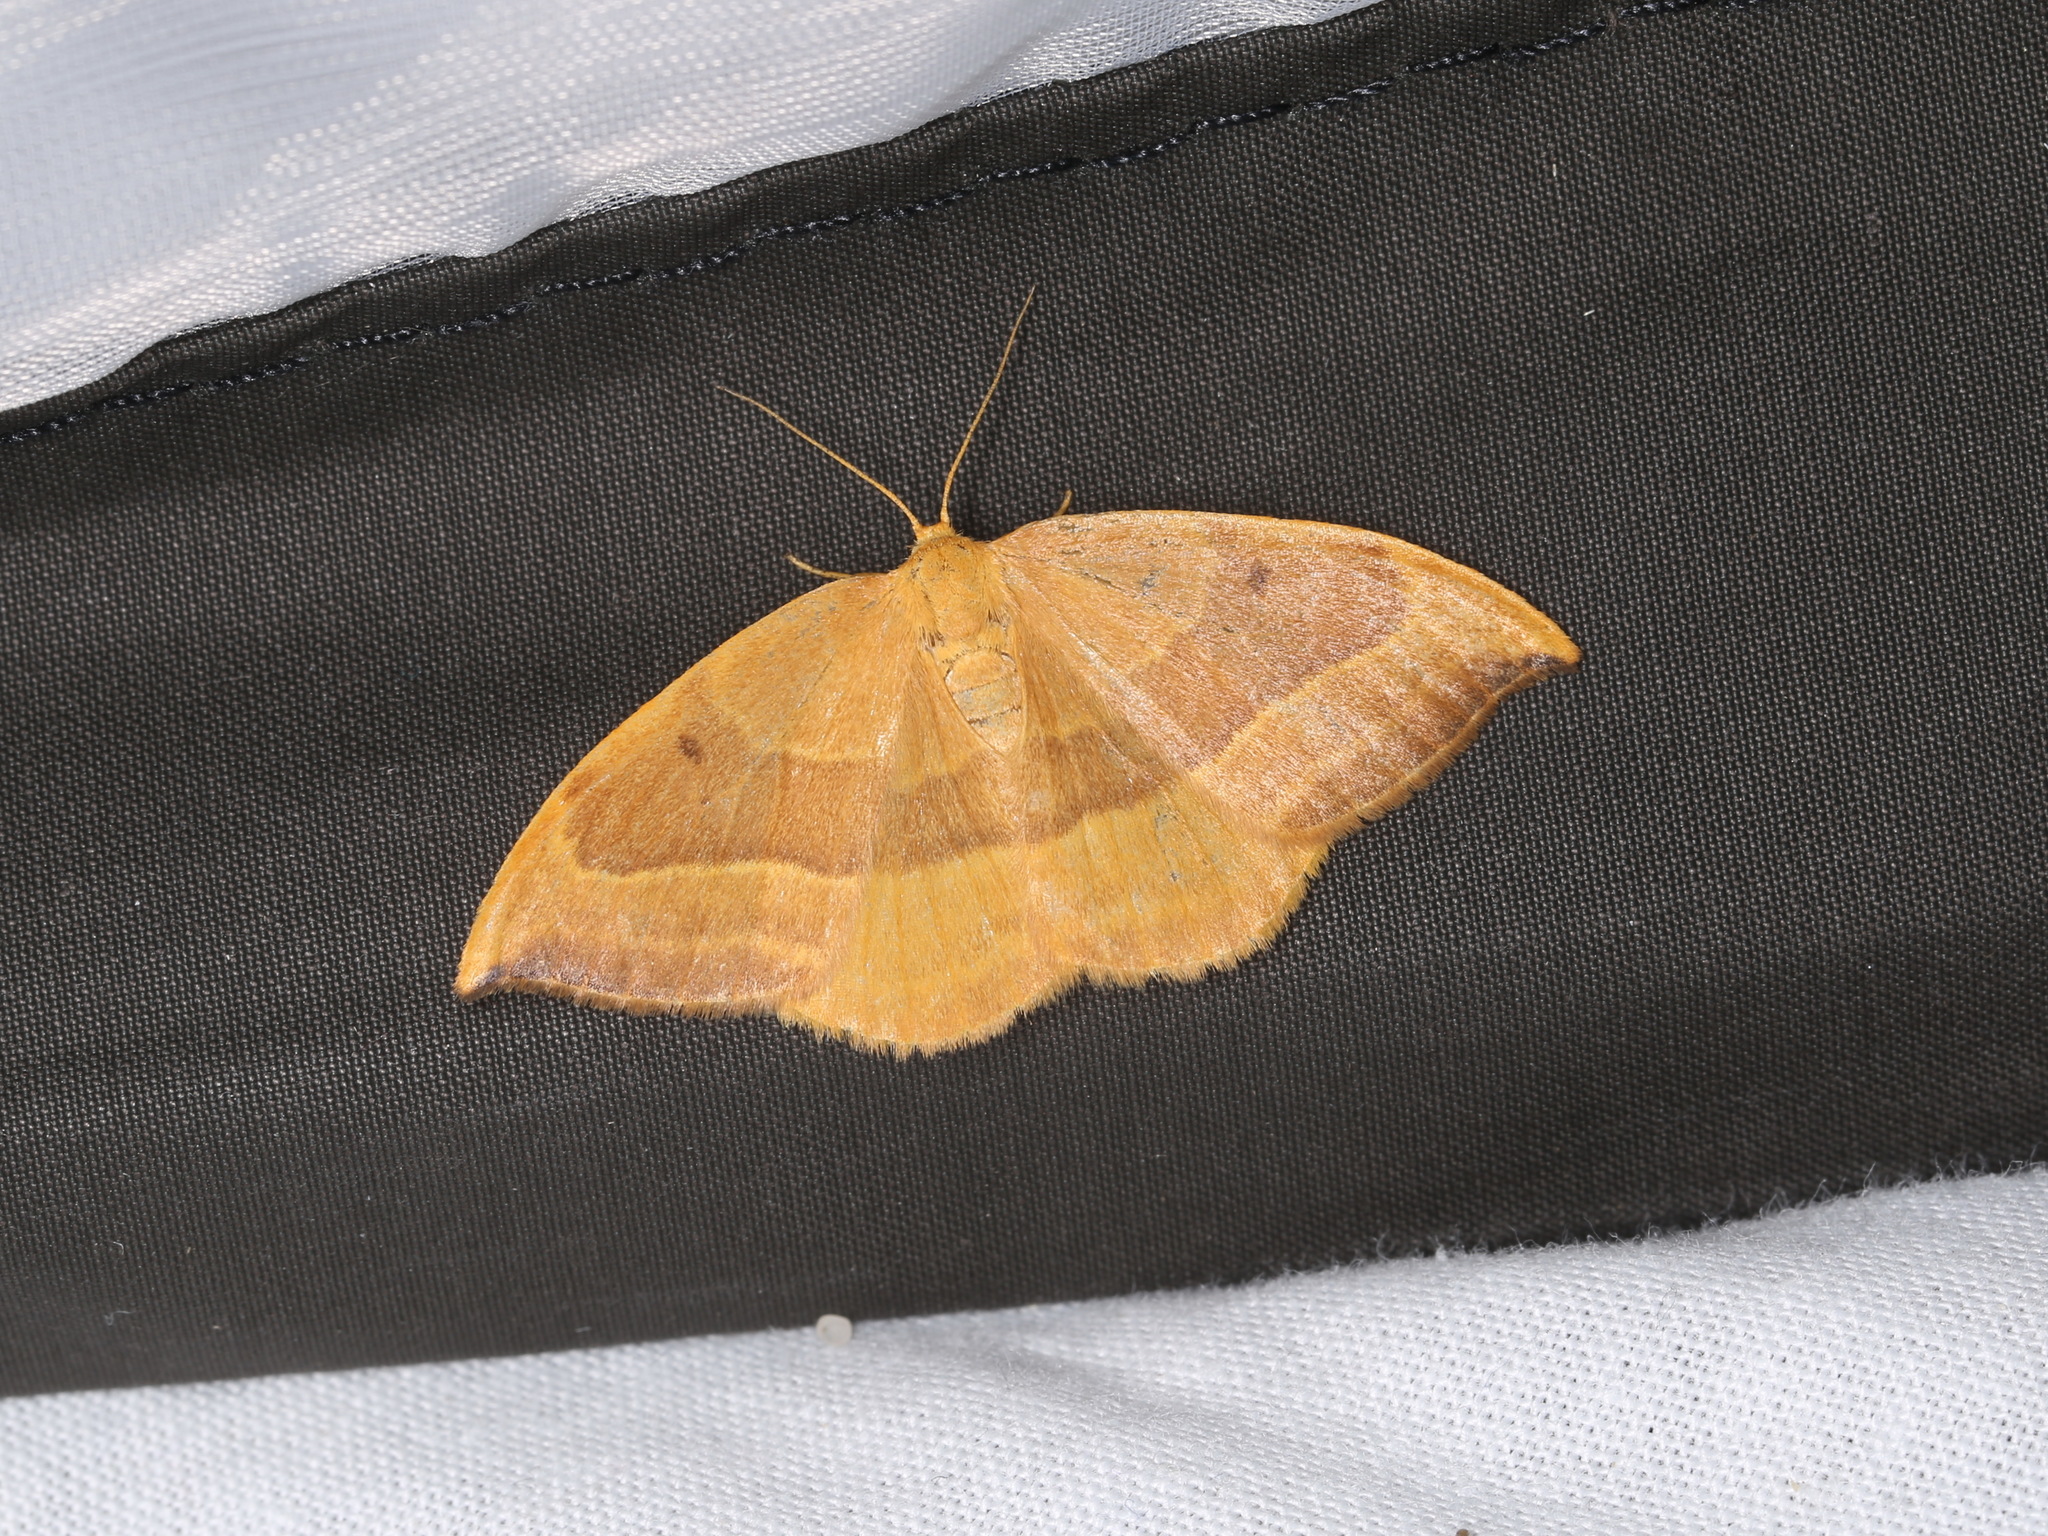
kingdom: Animalia
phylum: Arthropoda
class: Insecta
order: Lepidoptera
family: Drepanidae
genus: Watsonalla
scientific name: Watsonalla cultraria
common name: Barred hook-tip
